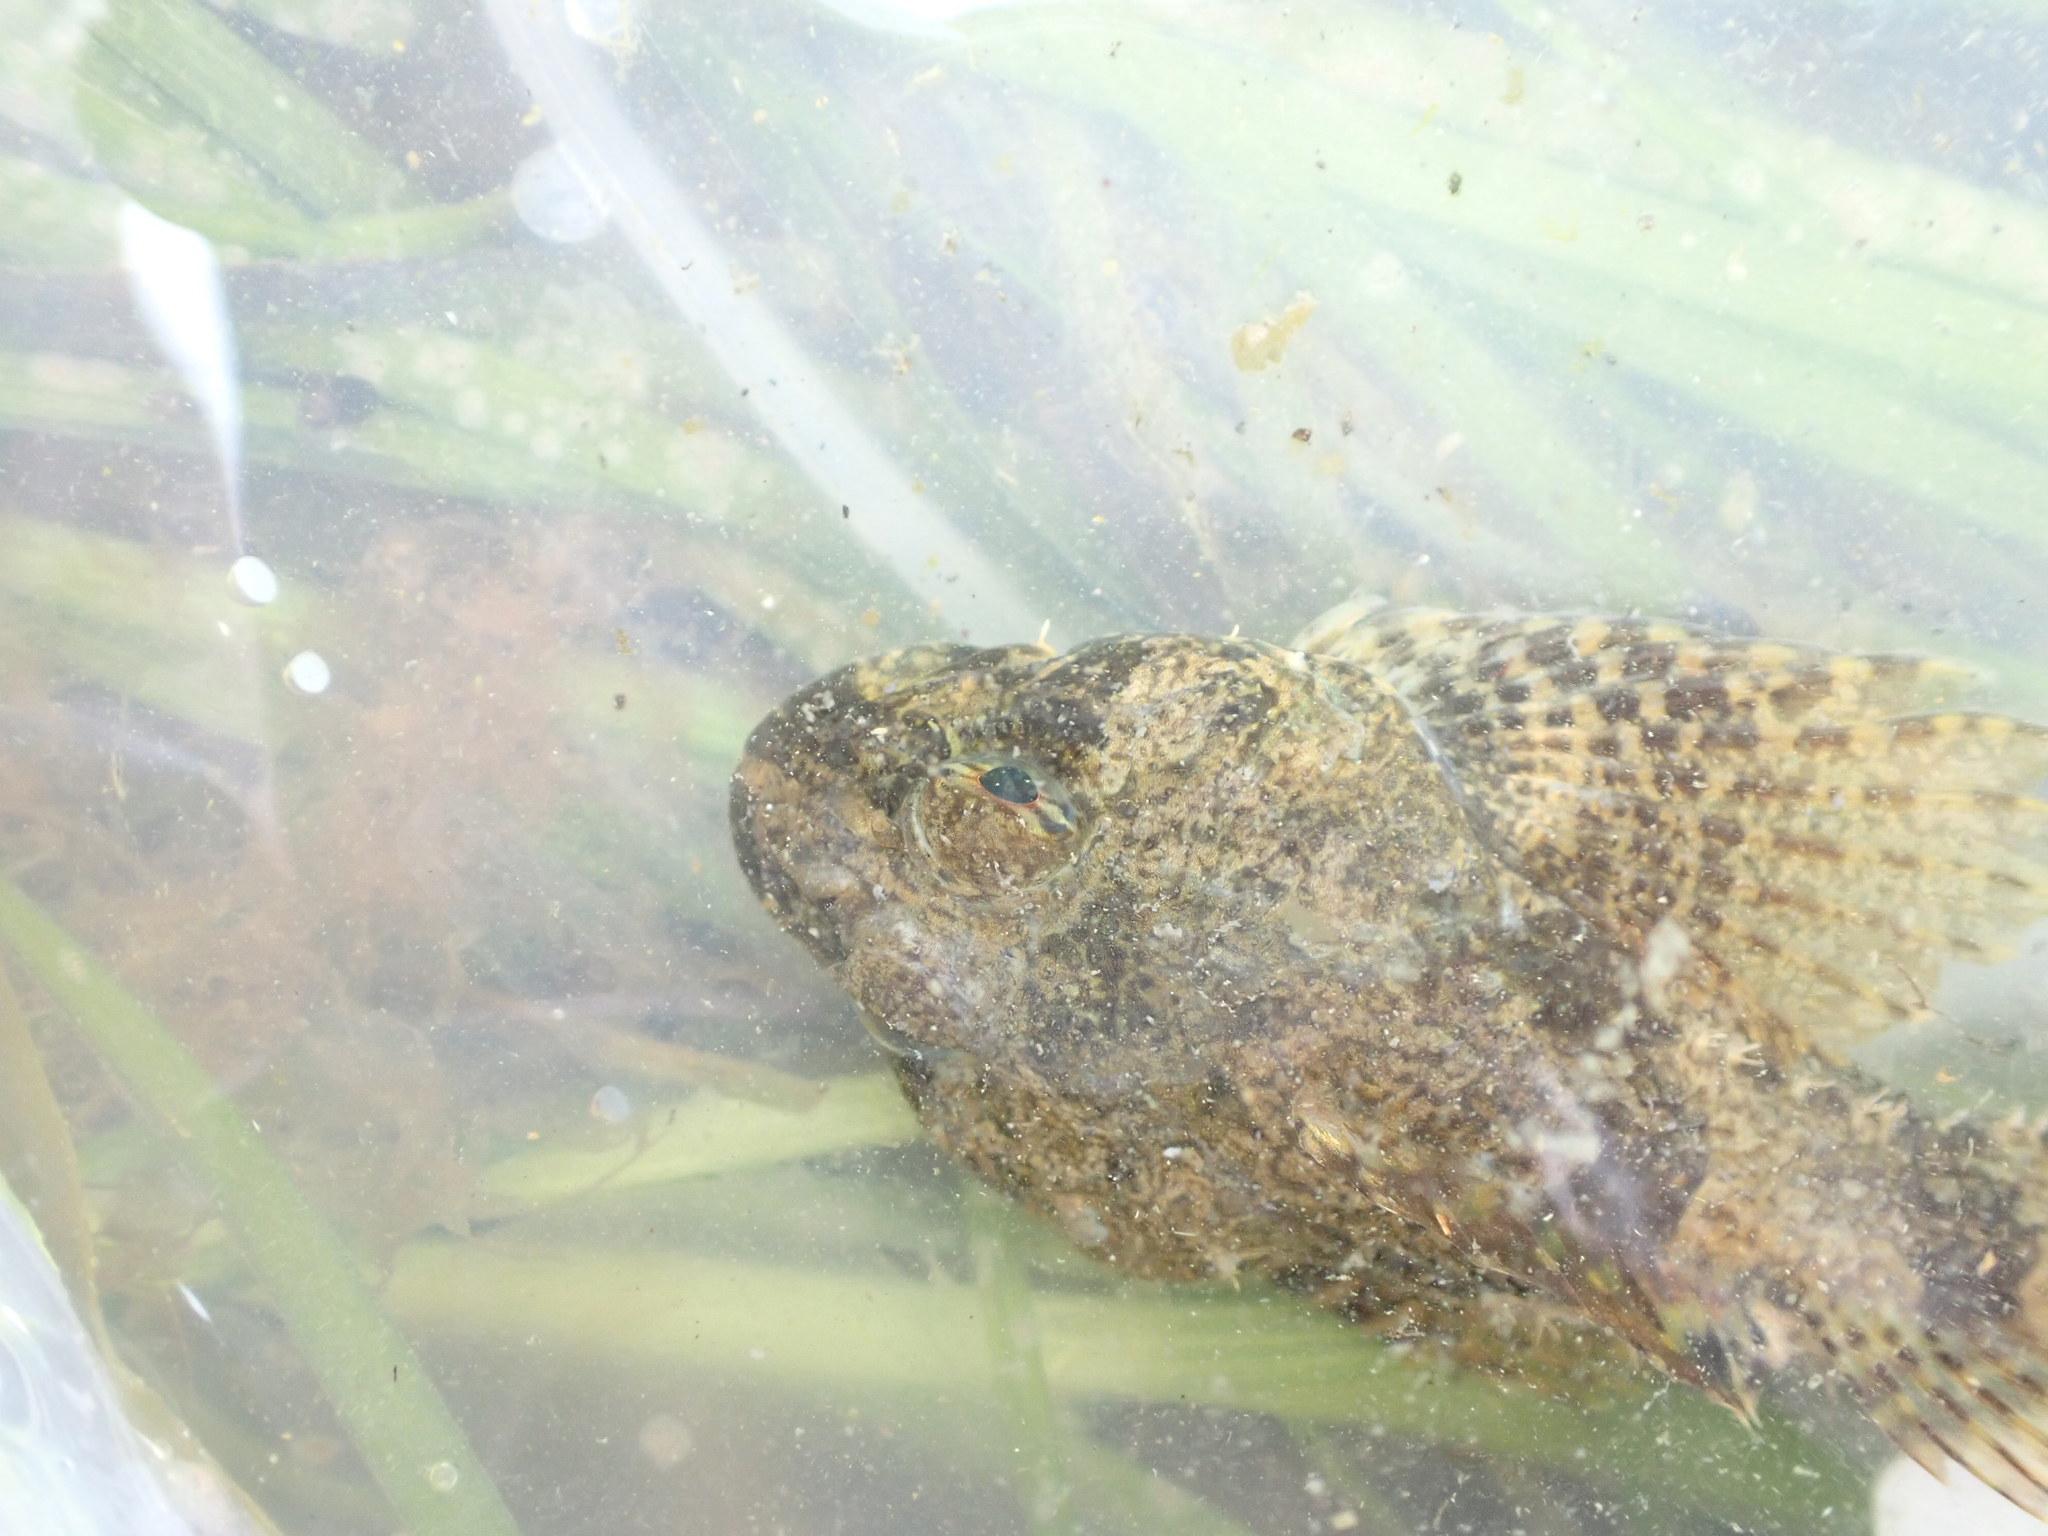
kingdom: Animalia
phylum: Chordata
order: Scorpaeniformes
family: Cottidae
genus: Artedius
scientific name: Artedius fenestralis
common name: Padded sculpin
